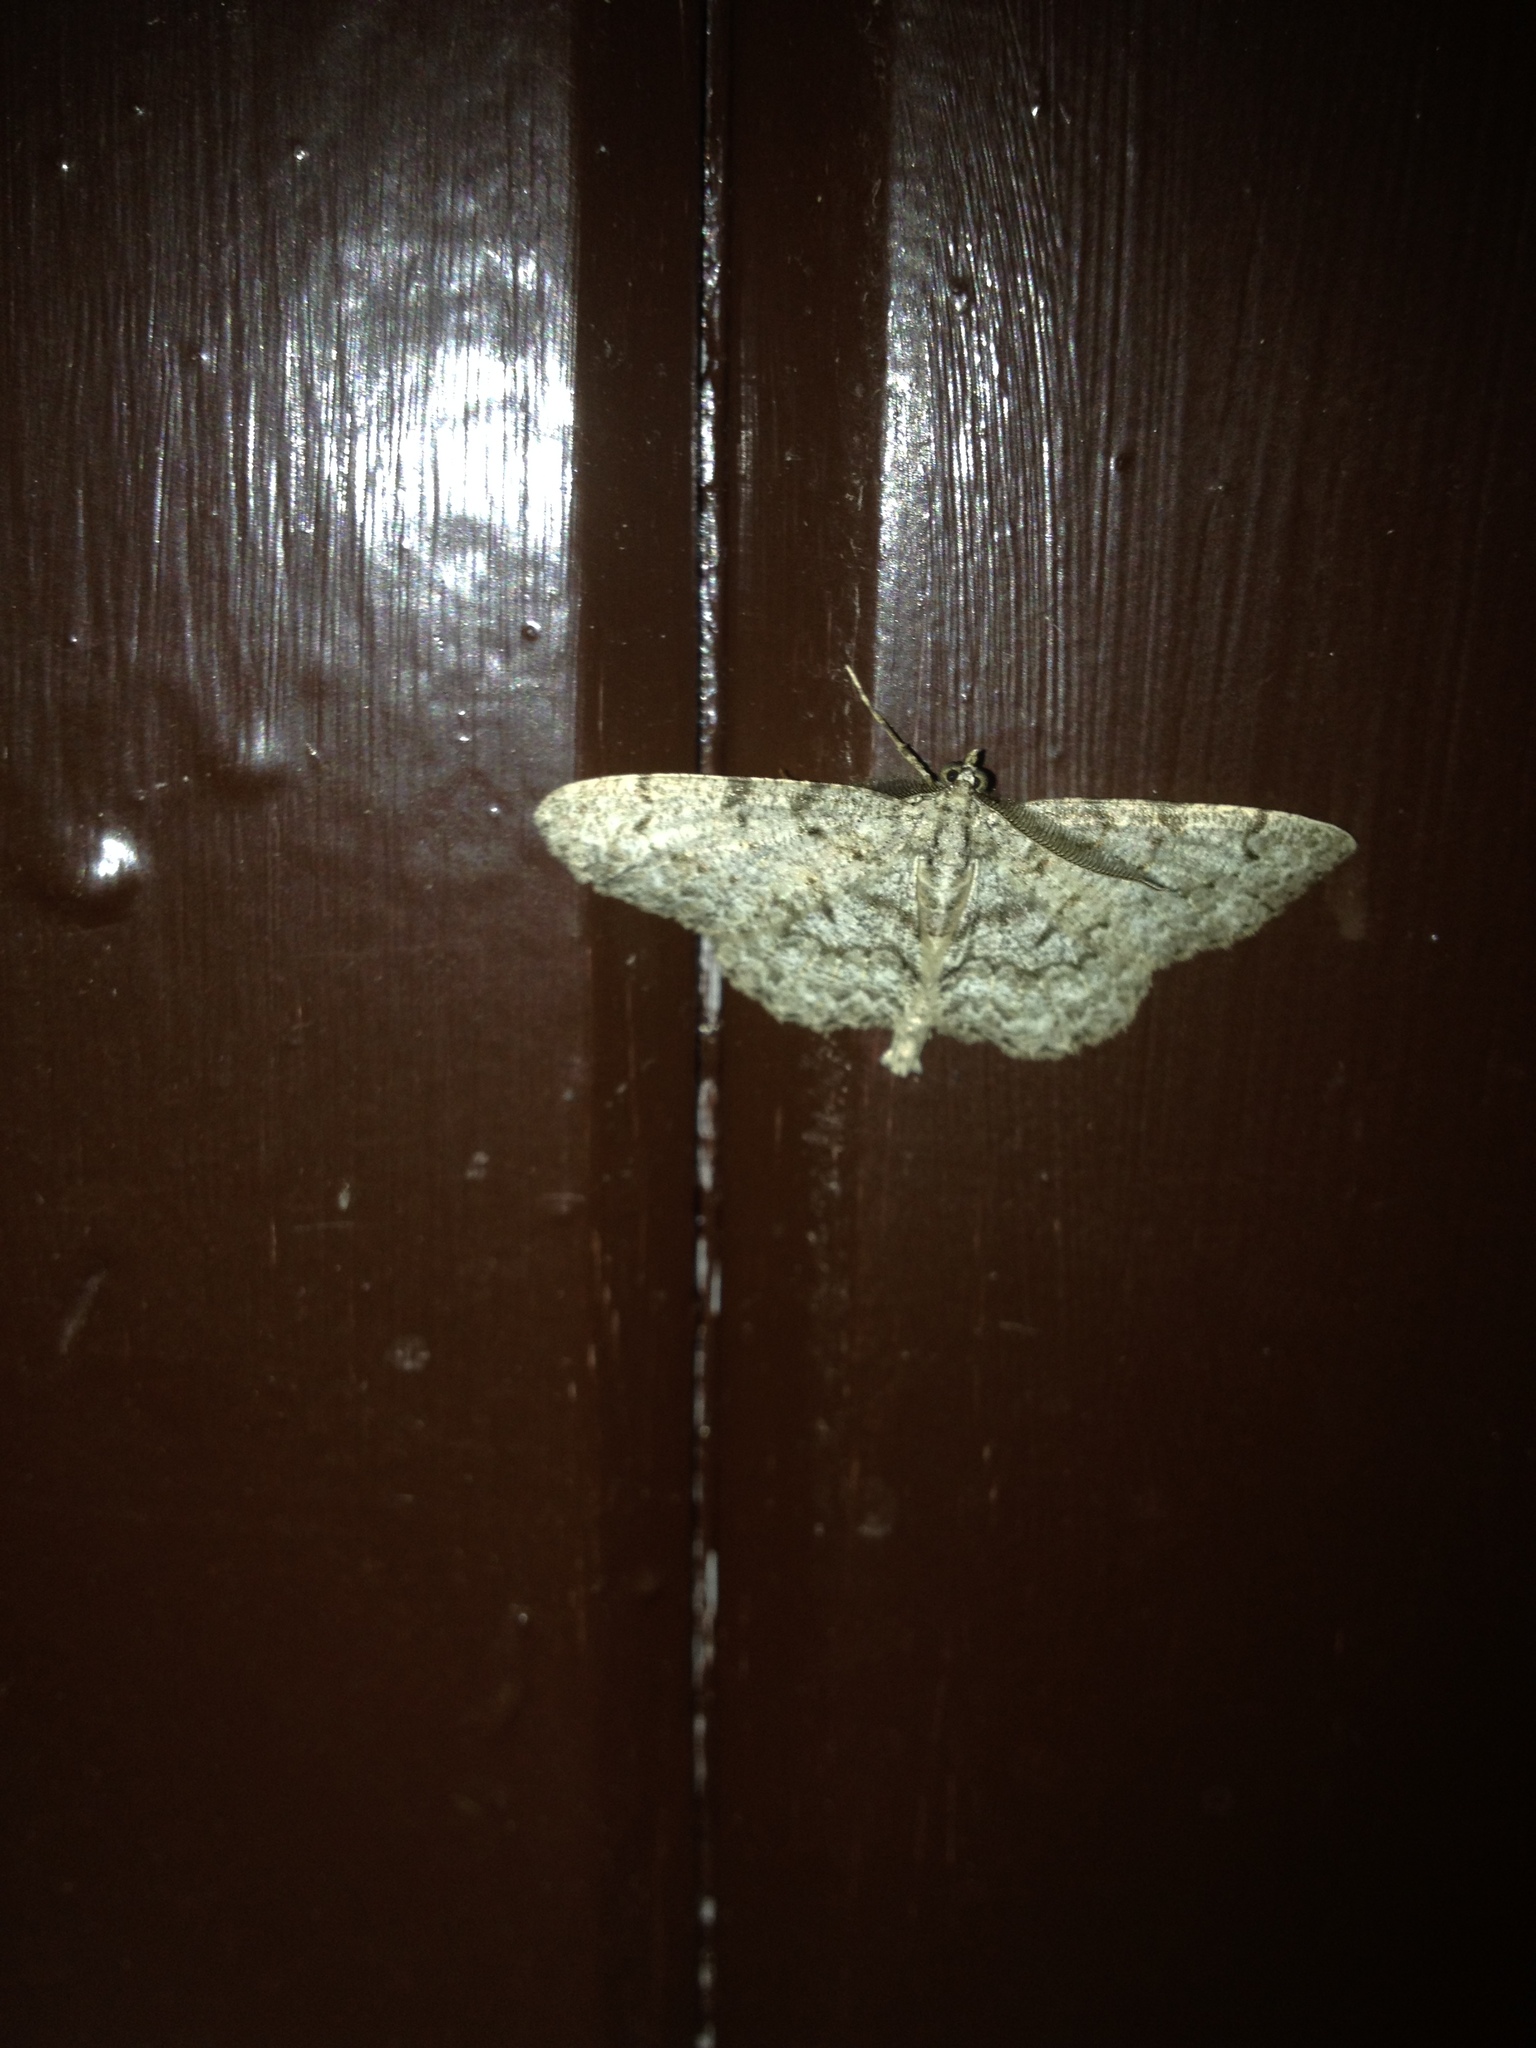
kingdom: Animalia
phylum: Arthropoda
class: Insecta
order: Lepidoptera
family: Geometridae
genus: Protoboarmia
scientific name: Protoboarmia porcelaria
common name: Porcelain gray
